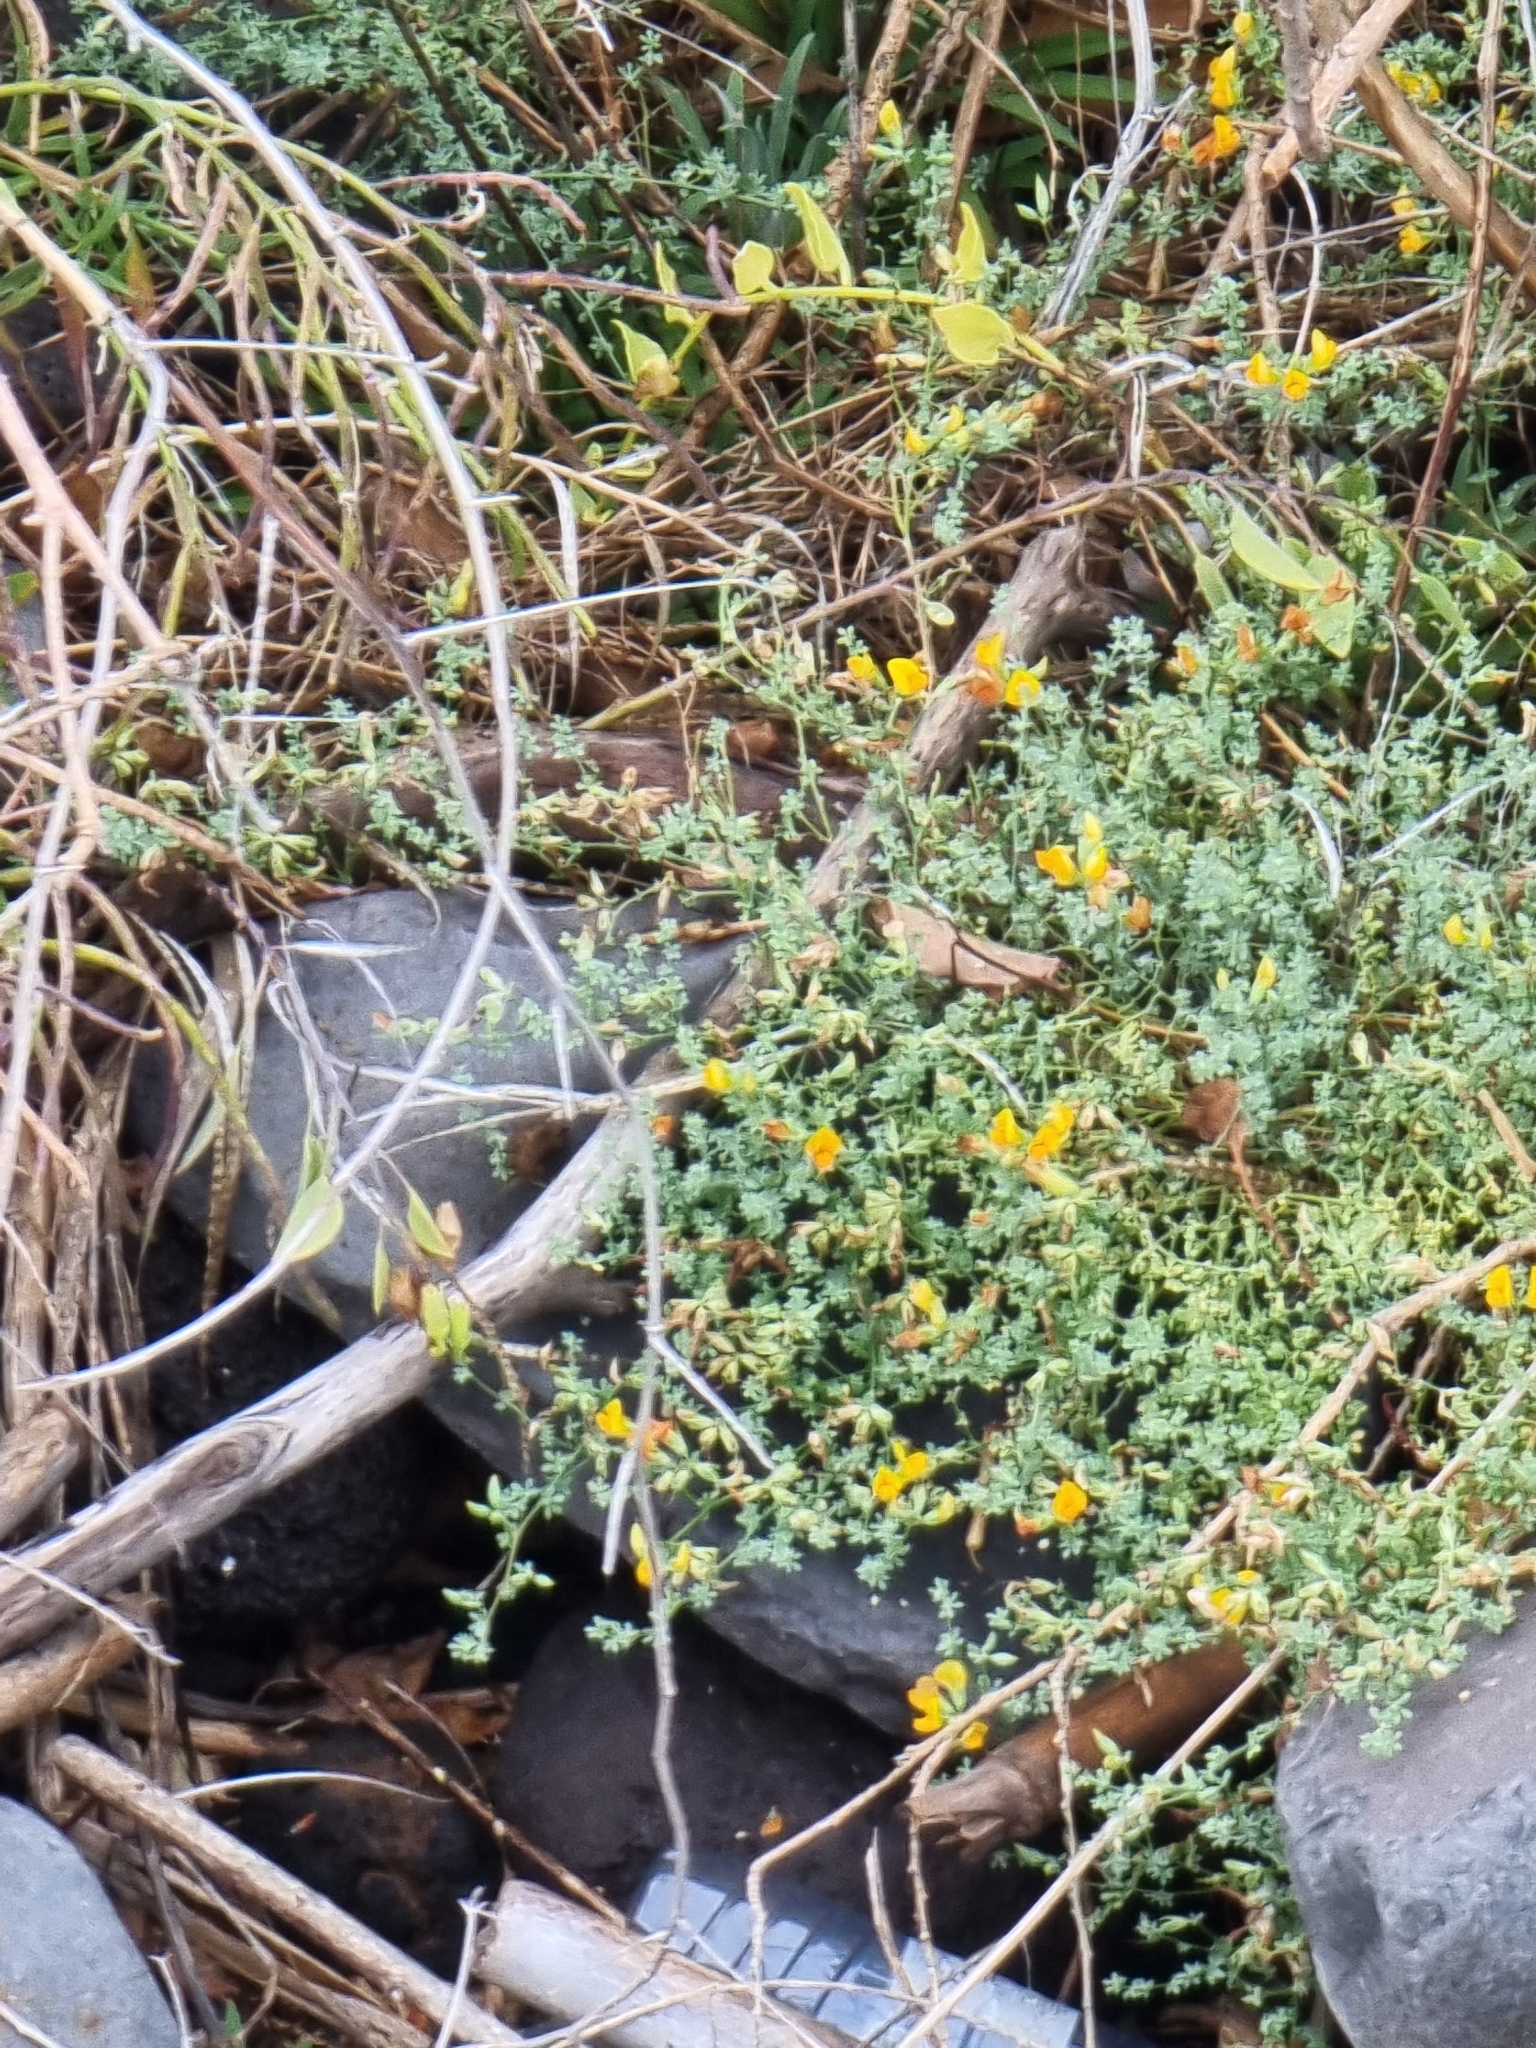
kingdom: Plantae
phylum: Tracheophyta
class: Magnoliopsida
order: Fabales
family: Fabaceae
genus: Lotus
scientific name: Lotus glaucus
